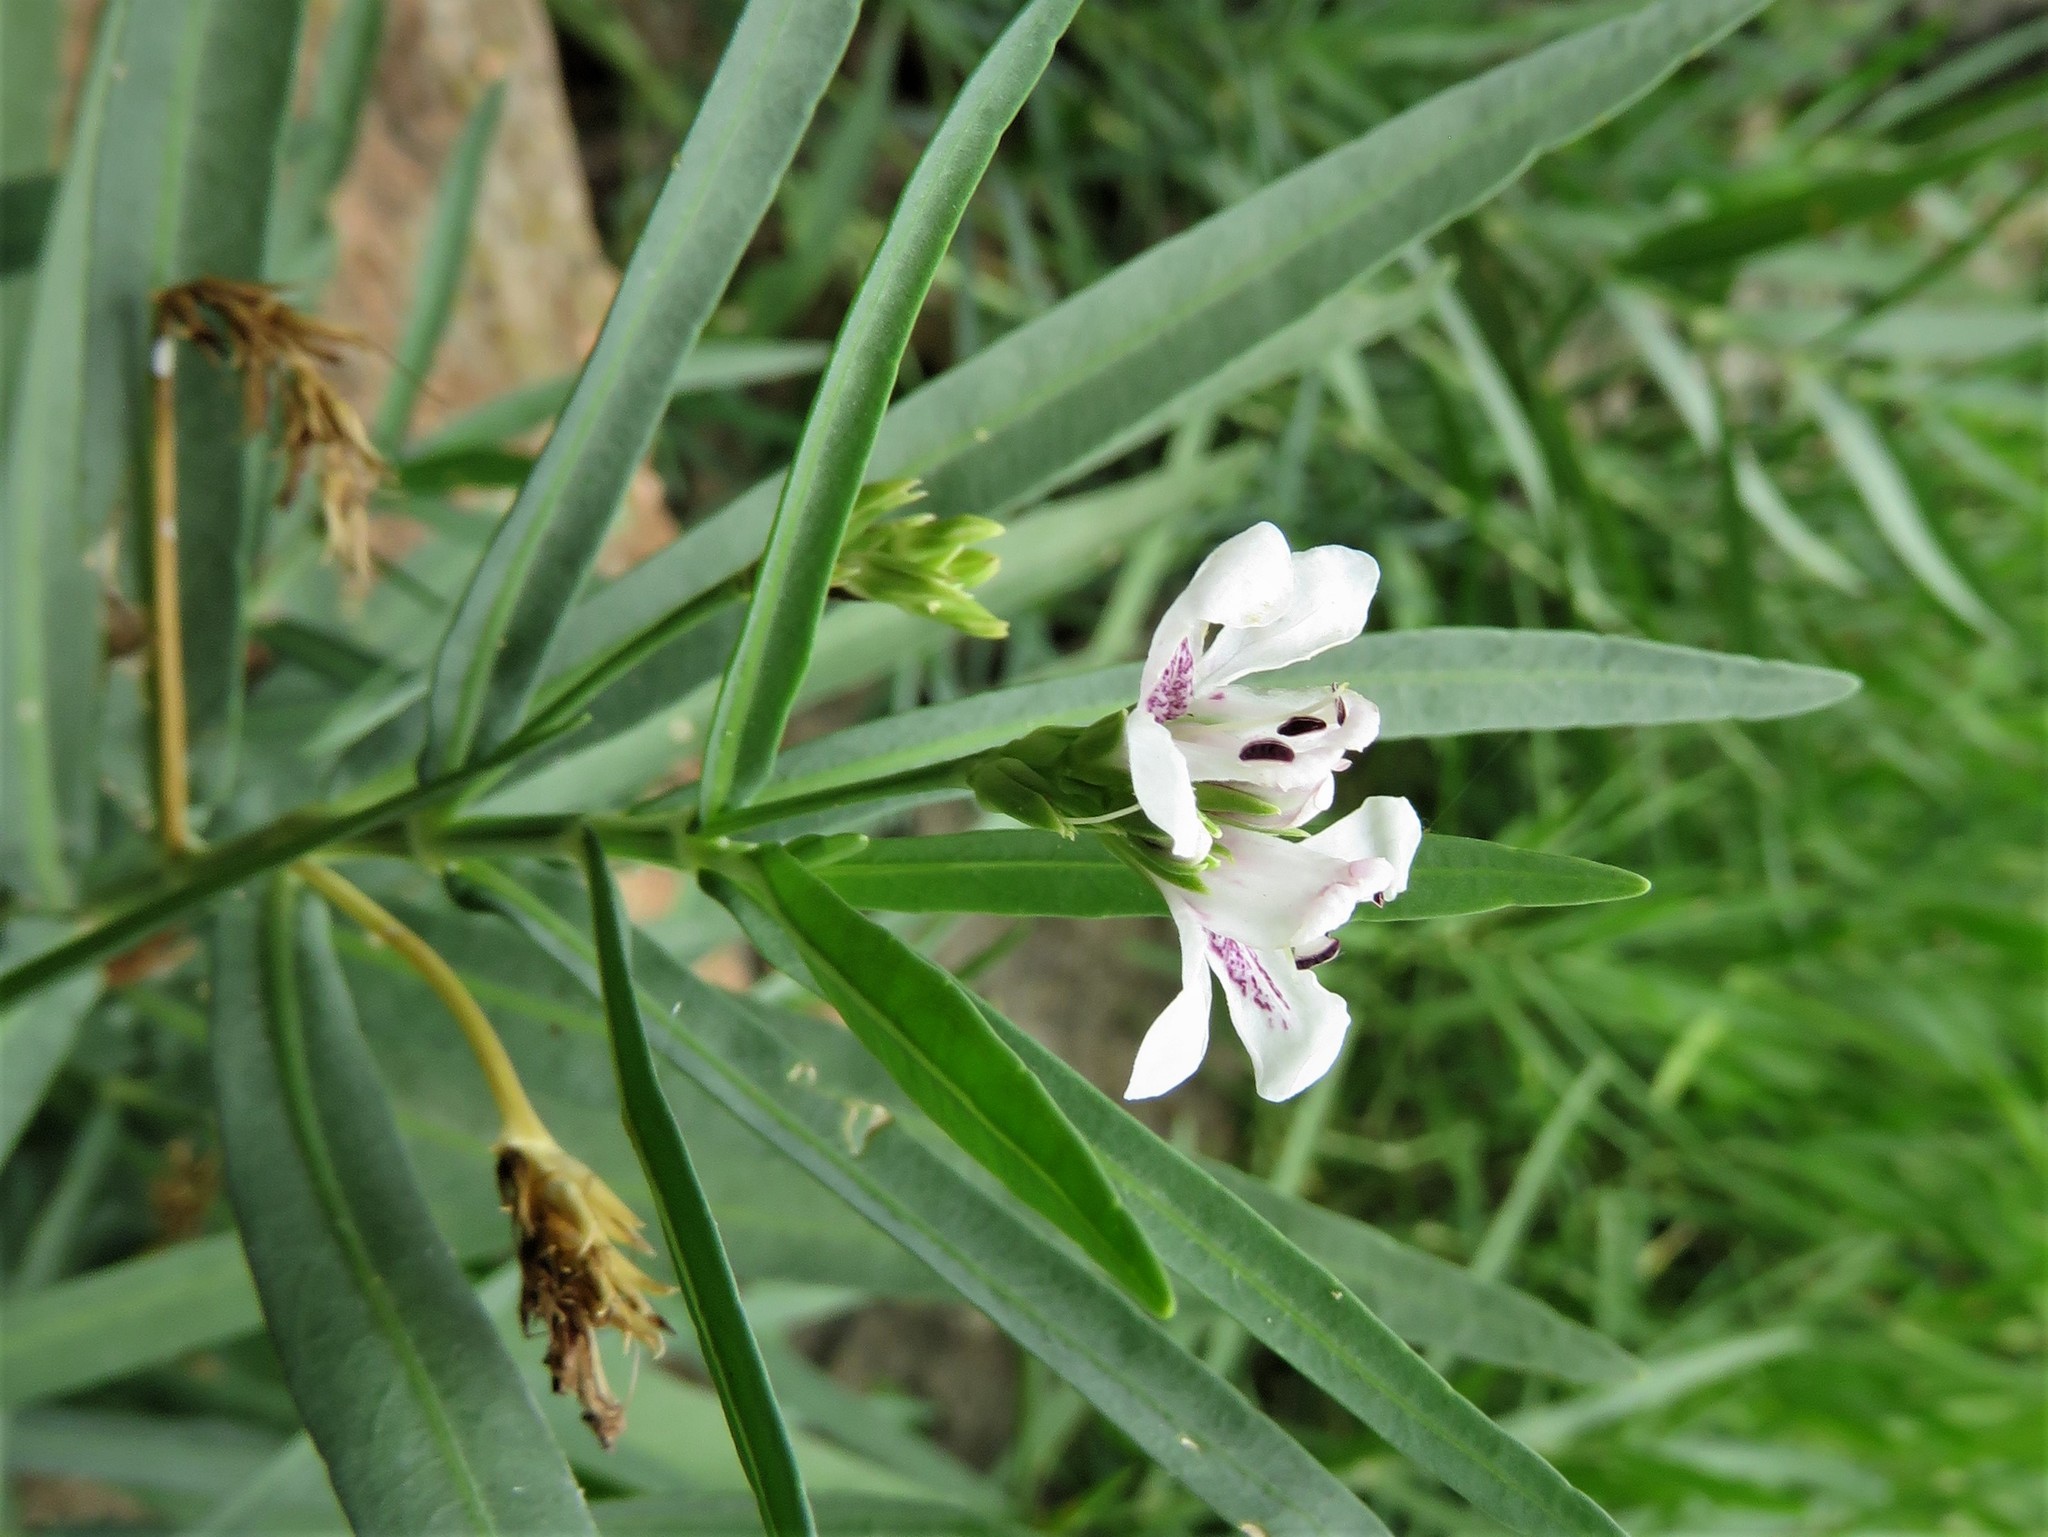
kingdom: Plantae
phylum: Tracheophyta
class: Magnoliopsida
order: Lamiales
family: Acanthaceae
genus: Dianthera
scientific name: Dianthera americana
